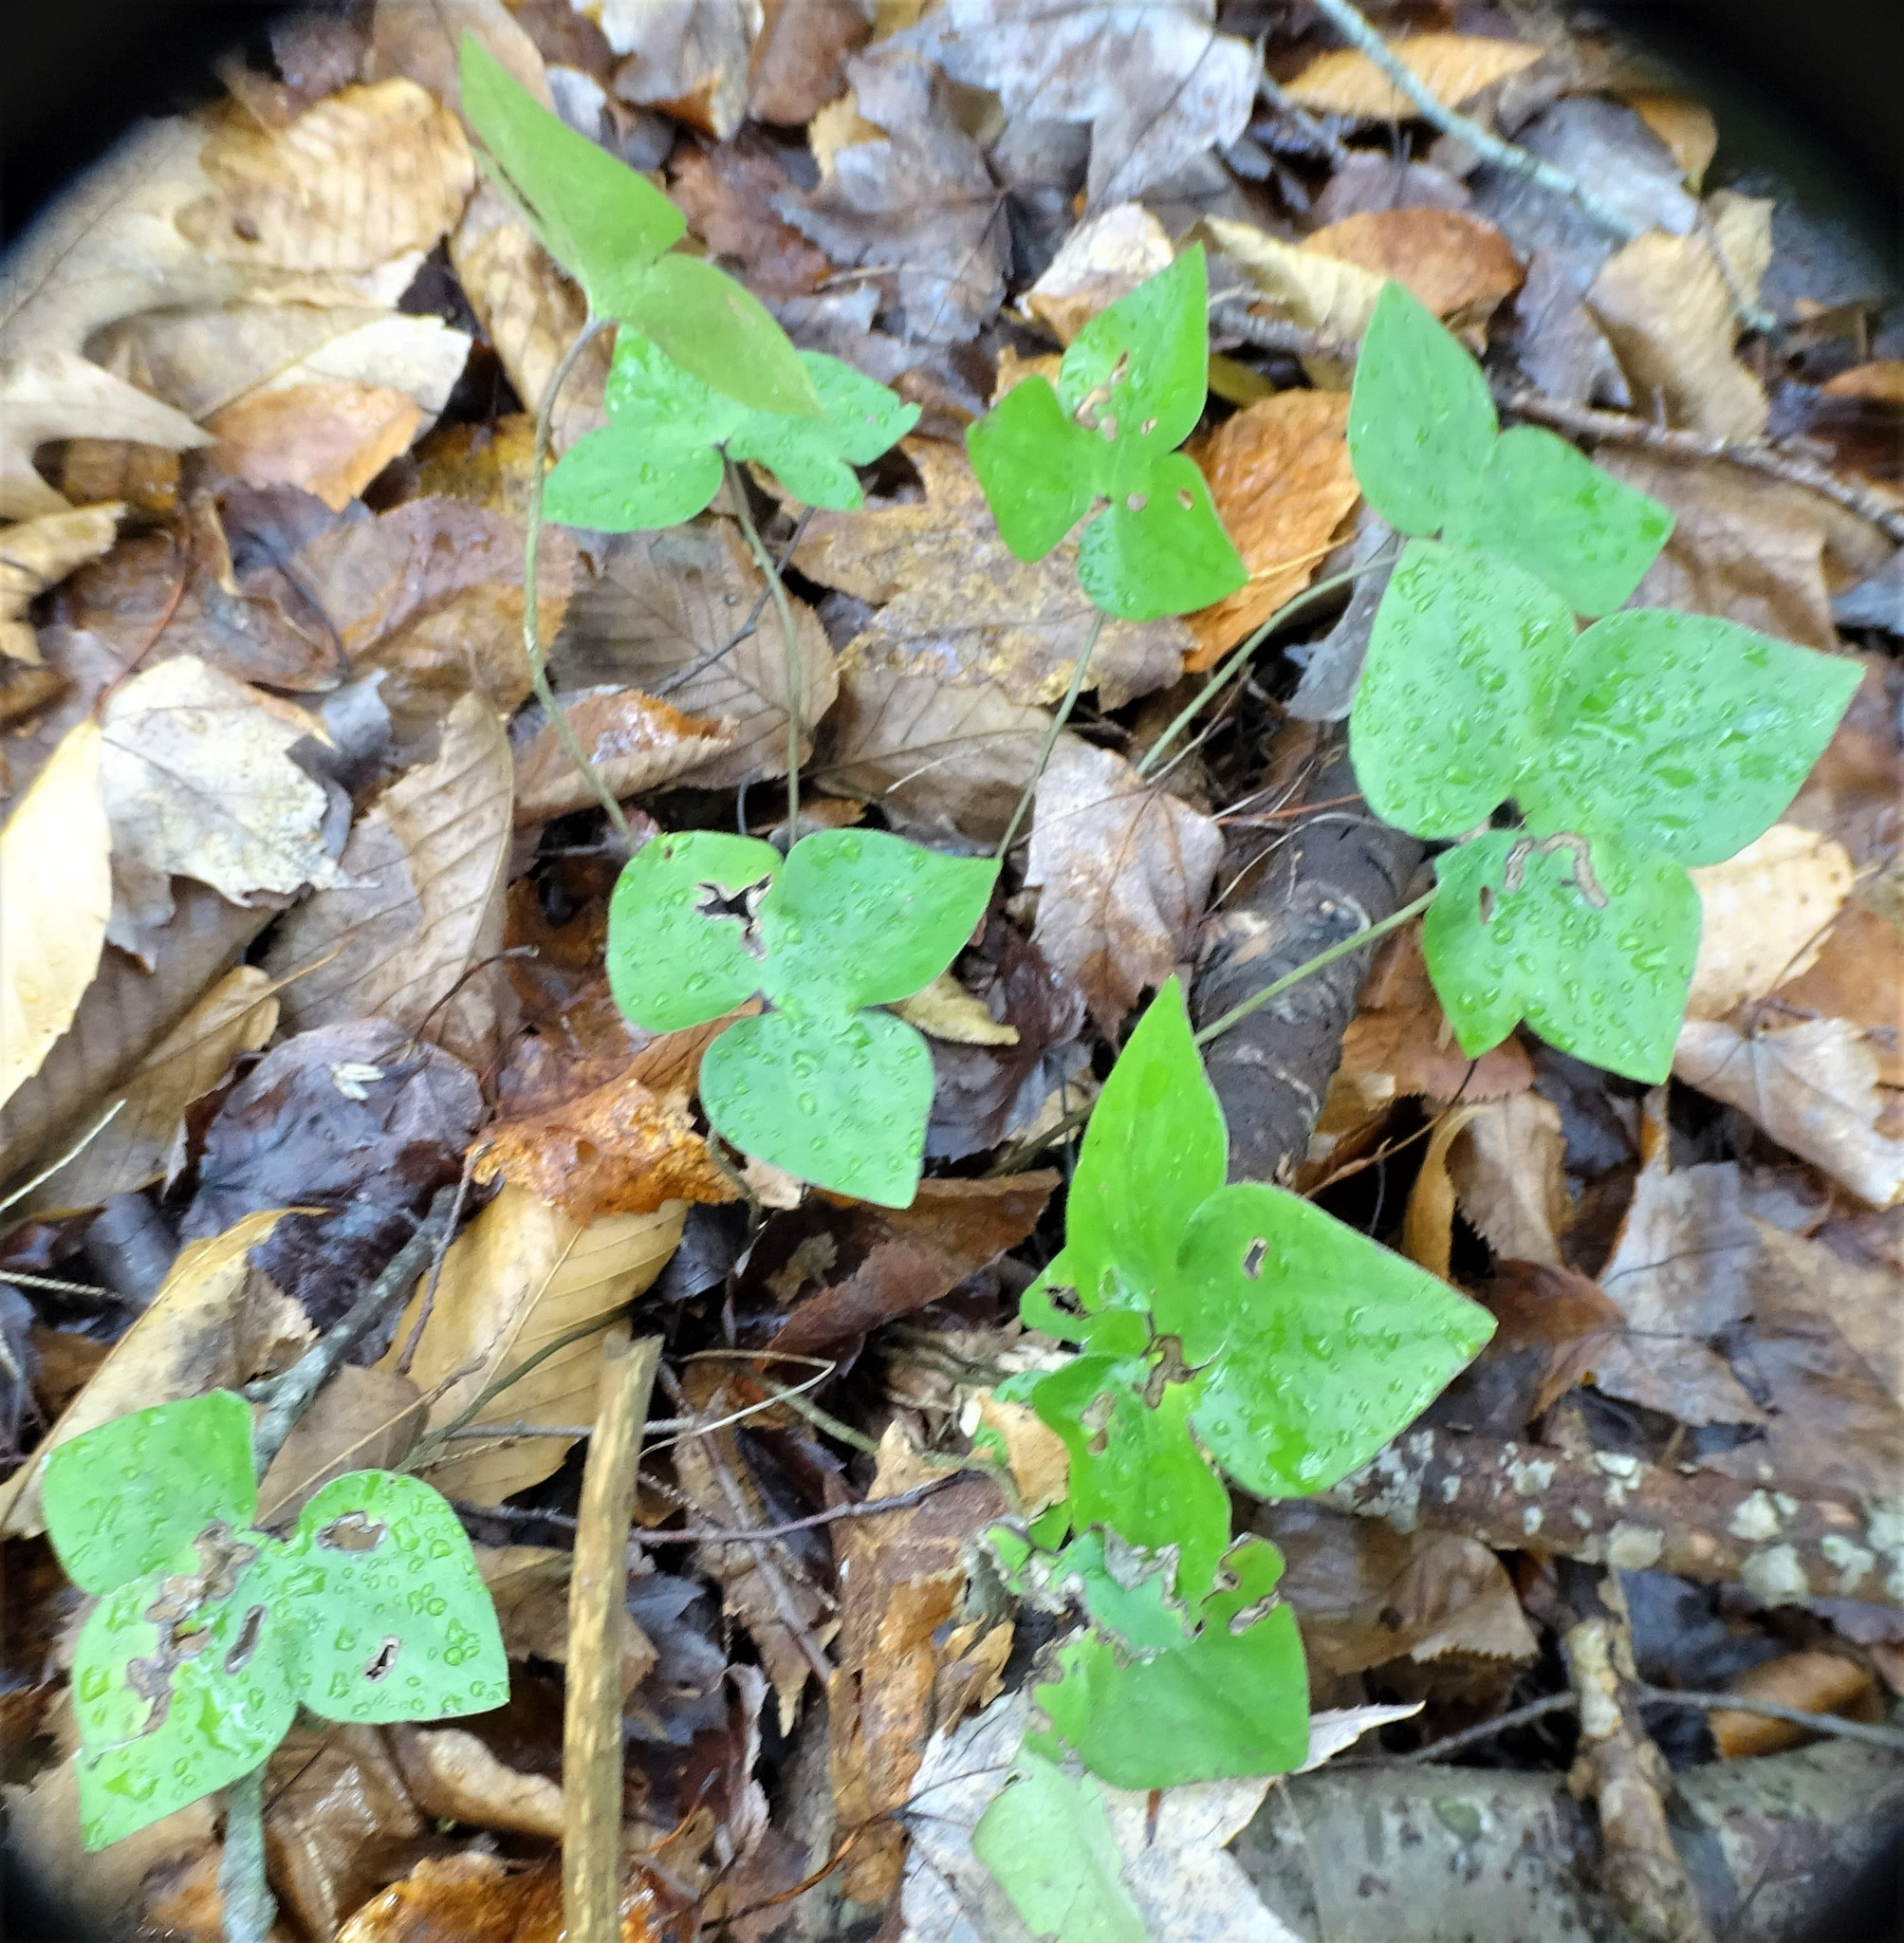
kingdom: Plantae
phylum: Tracheophyta
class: Magnoliopsida
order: Ranunculales
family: Ranunculaceae
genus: Hepatica
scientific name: Hepatica acutiloba
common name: Sharp-lobed hepatica
